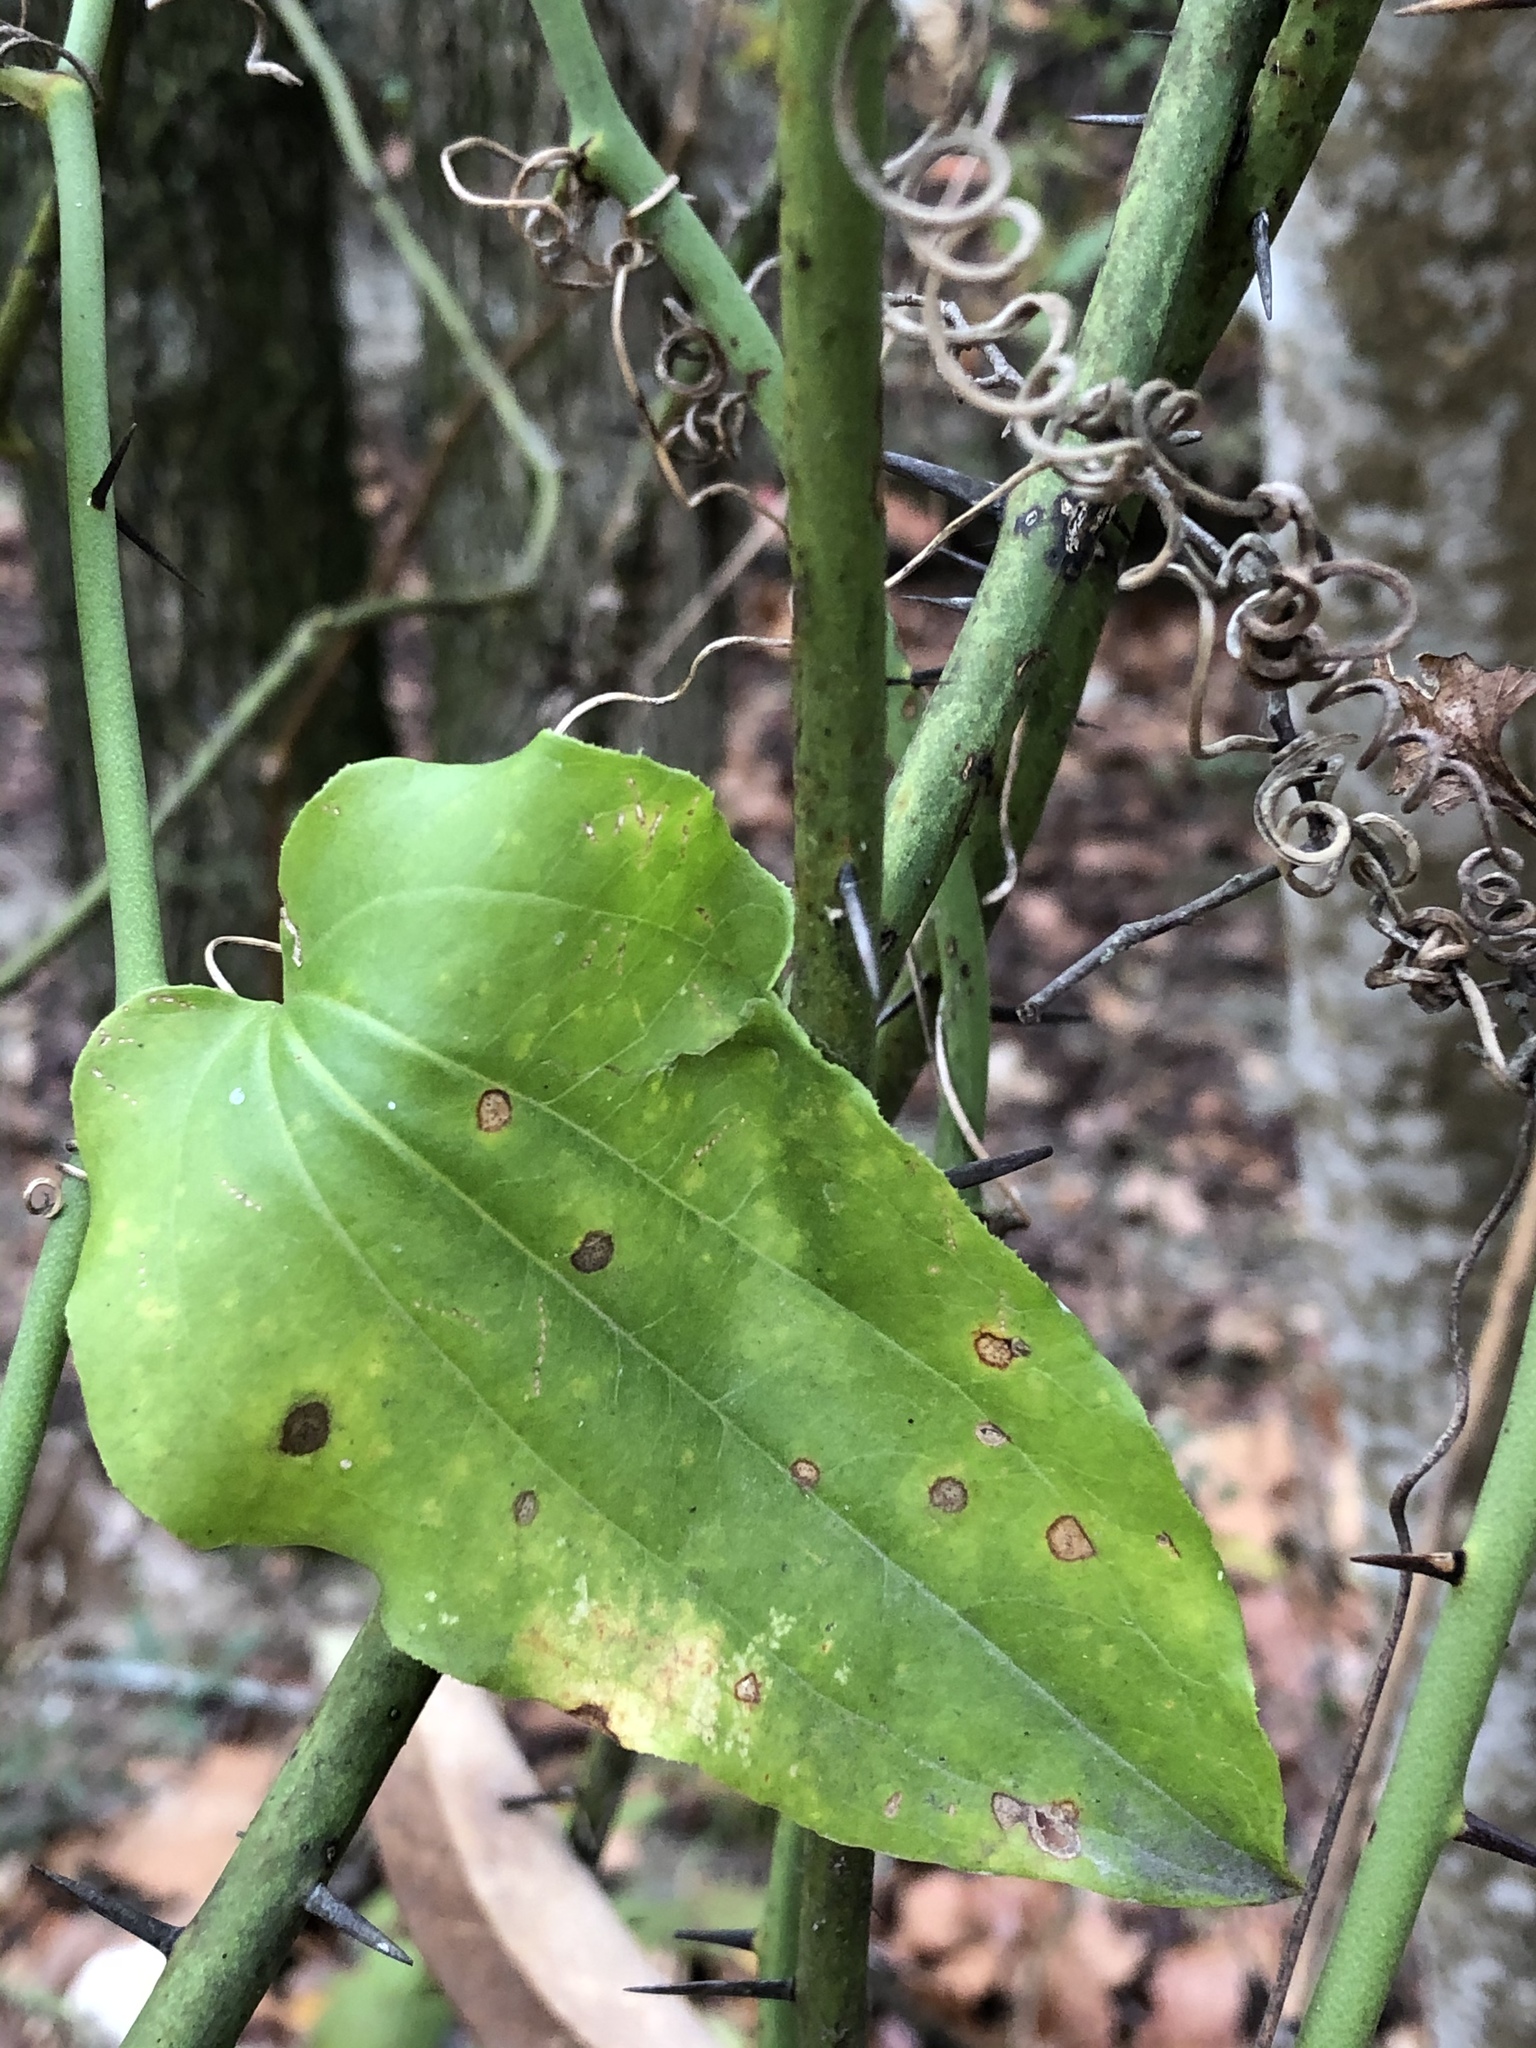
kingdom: Plantae
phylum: Tracheophyta
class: Liliopsida
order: Liliales
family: Smilacaceae
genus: Smilax
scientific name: Smilax bona-nox
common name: Catbrier
